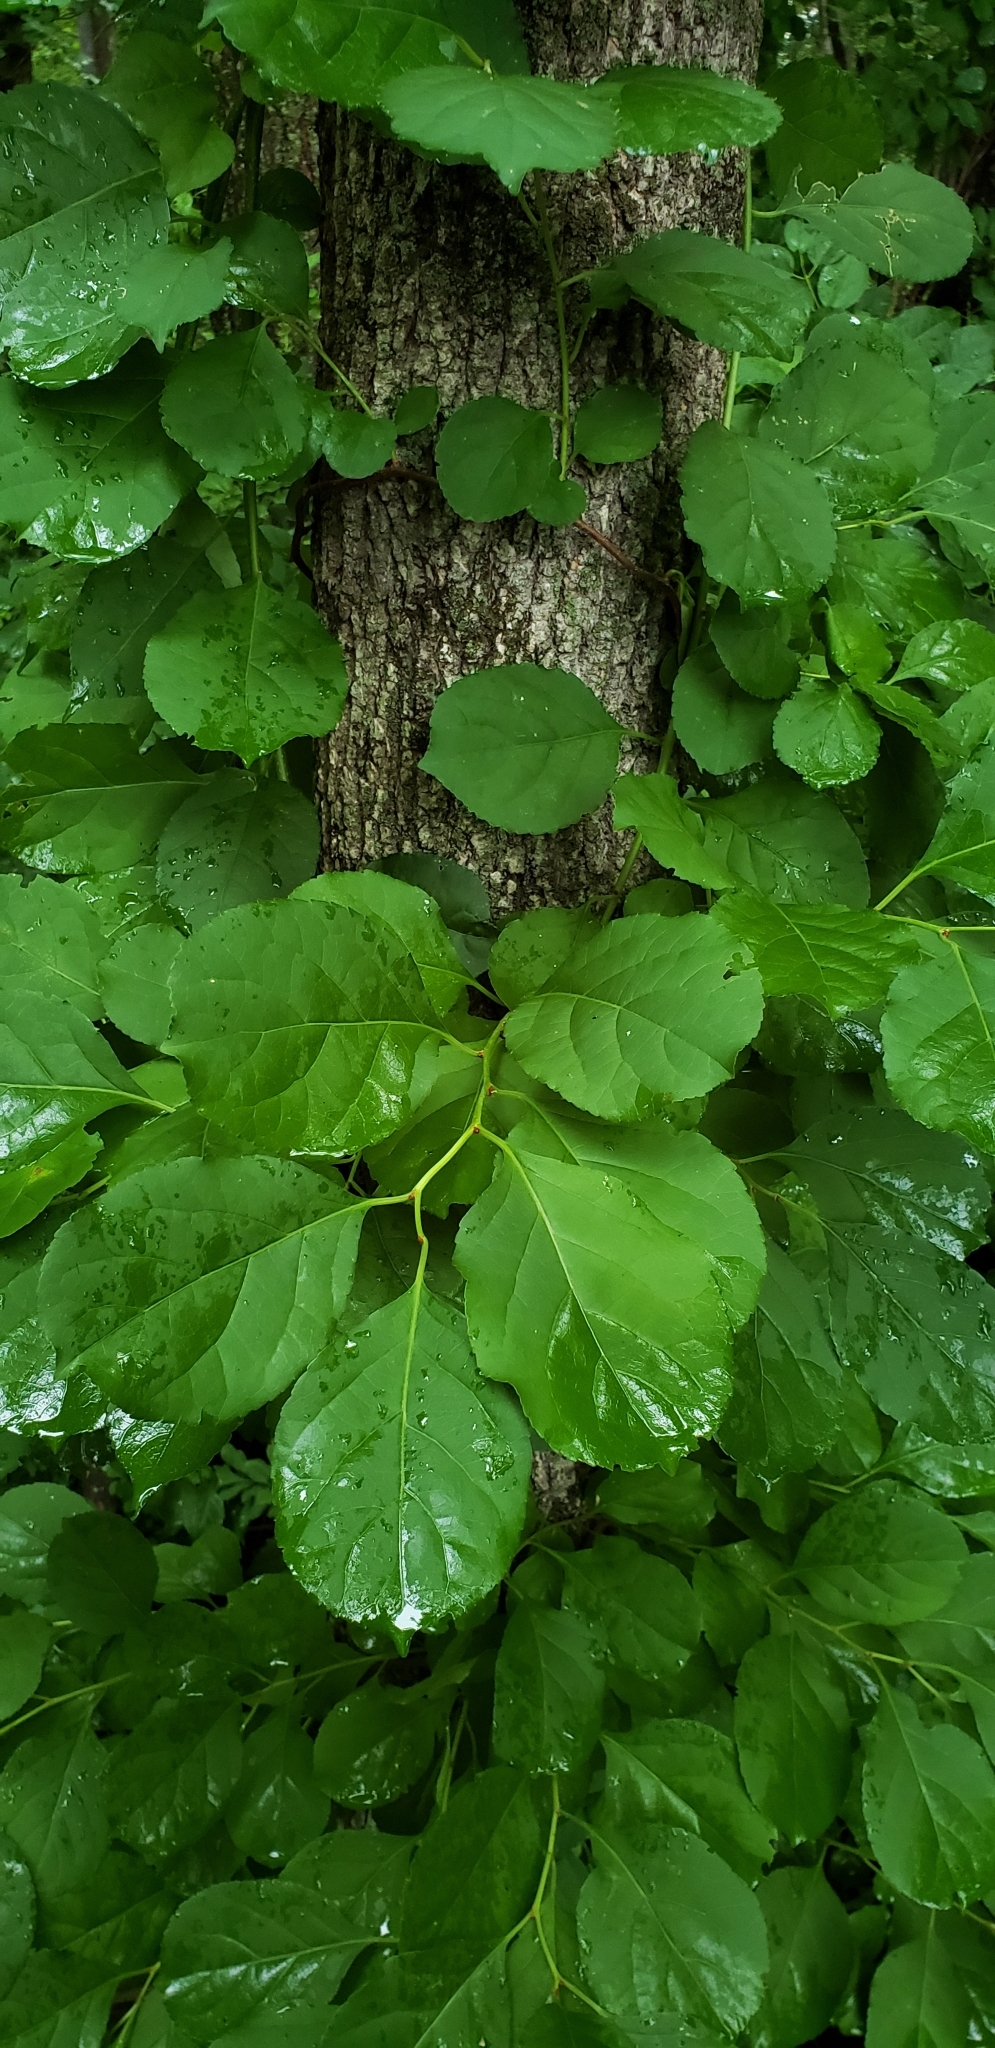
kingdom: Plantae
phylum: Tracheophyta
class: Magnoliopsida
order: Celastrales
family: Celastraceae
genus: Celastrus
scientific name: Celastrus orbiculatus
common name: Oriental bittersweet
